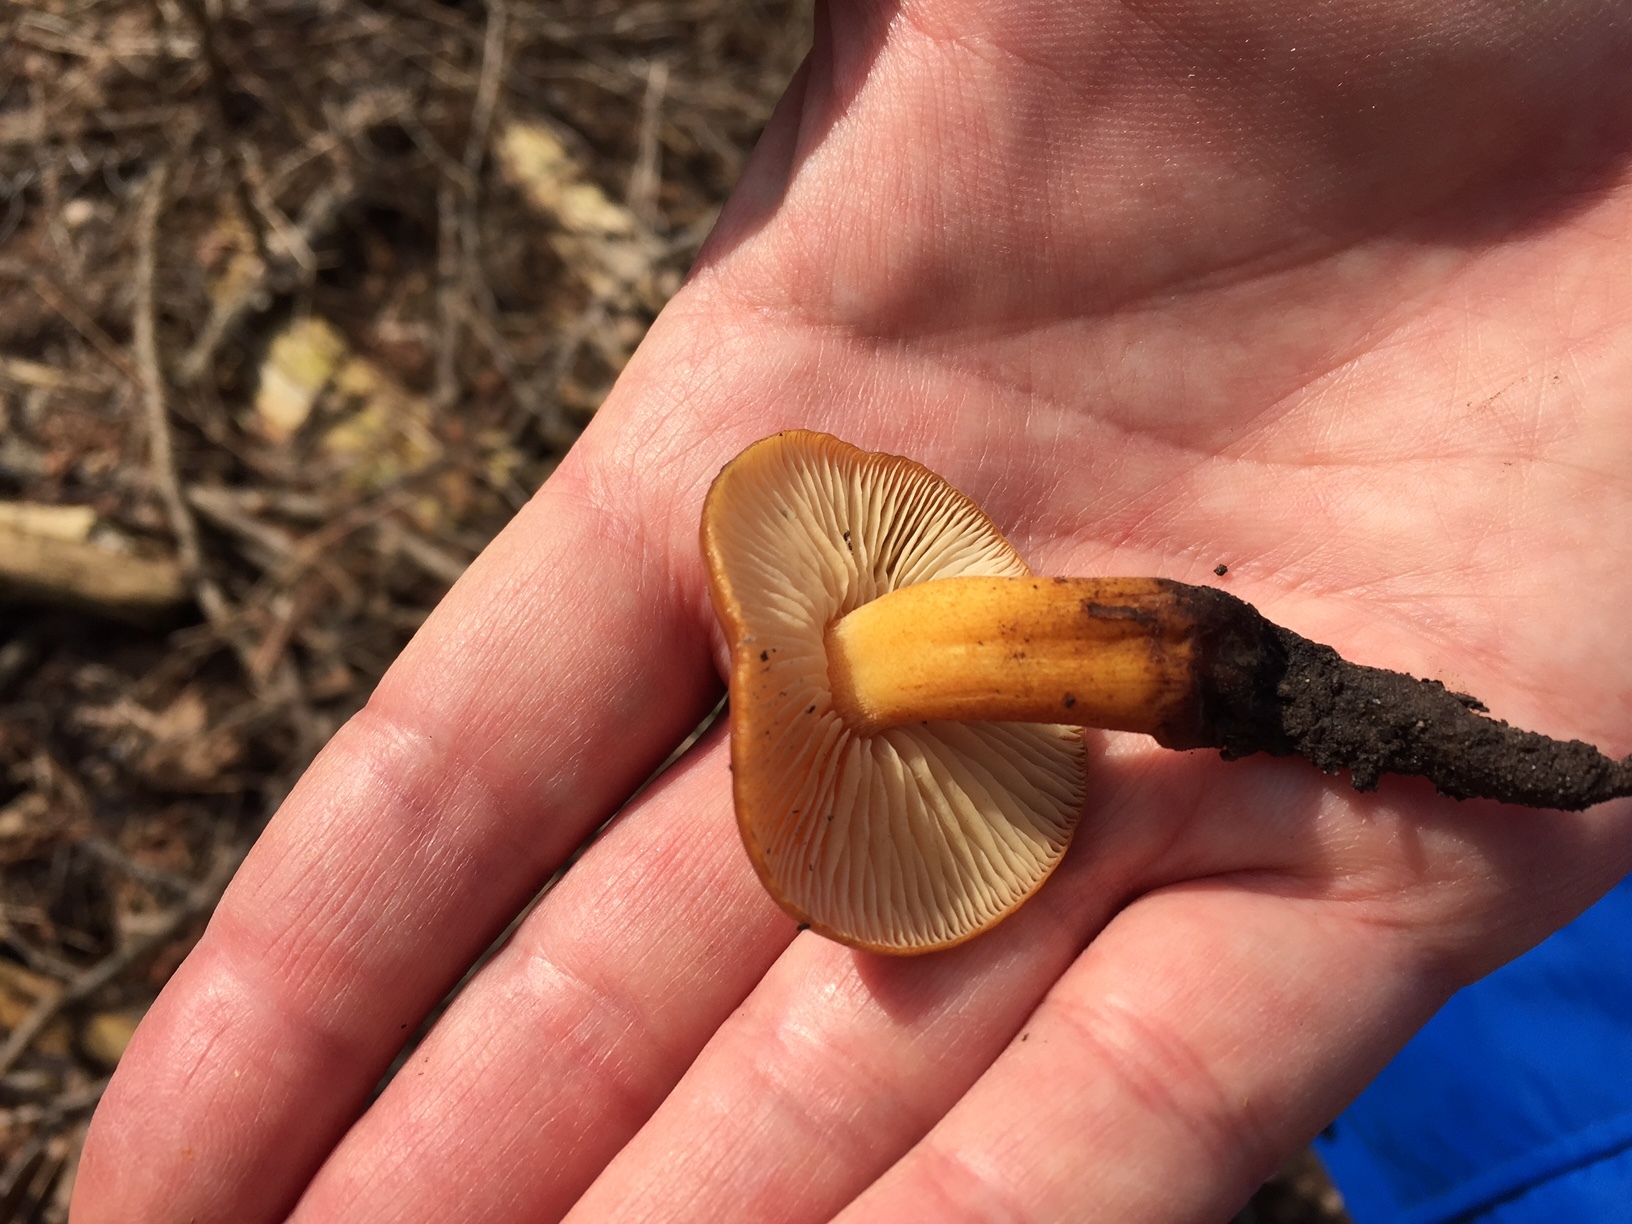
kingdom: Fungi
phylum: Basidiomycota
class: Agaricomycetes
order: Agaricales
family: Physalacriaceae
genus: Flammulina
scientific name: Flammulina velutipes
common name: Velvet shank
